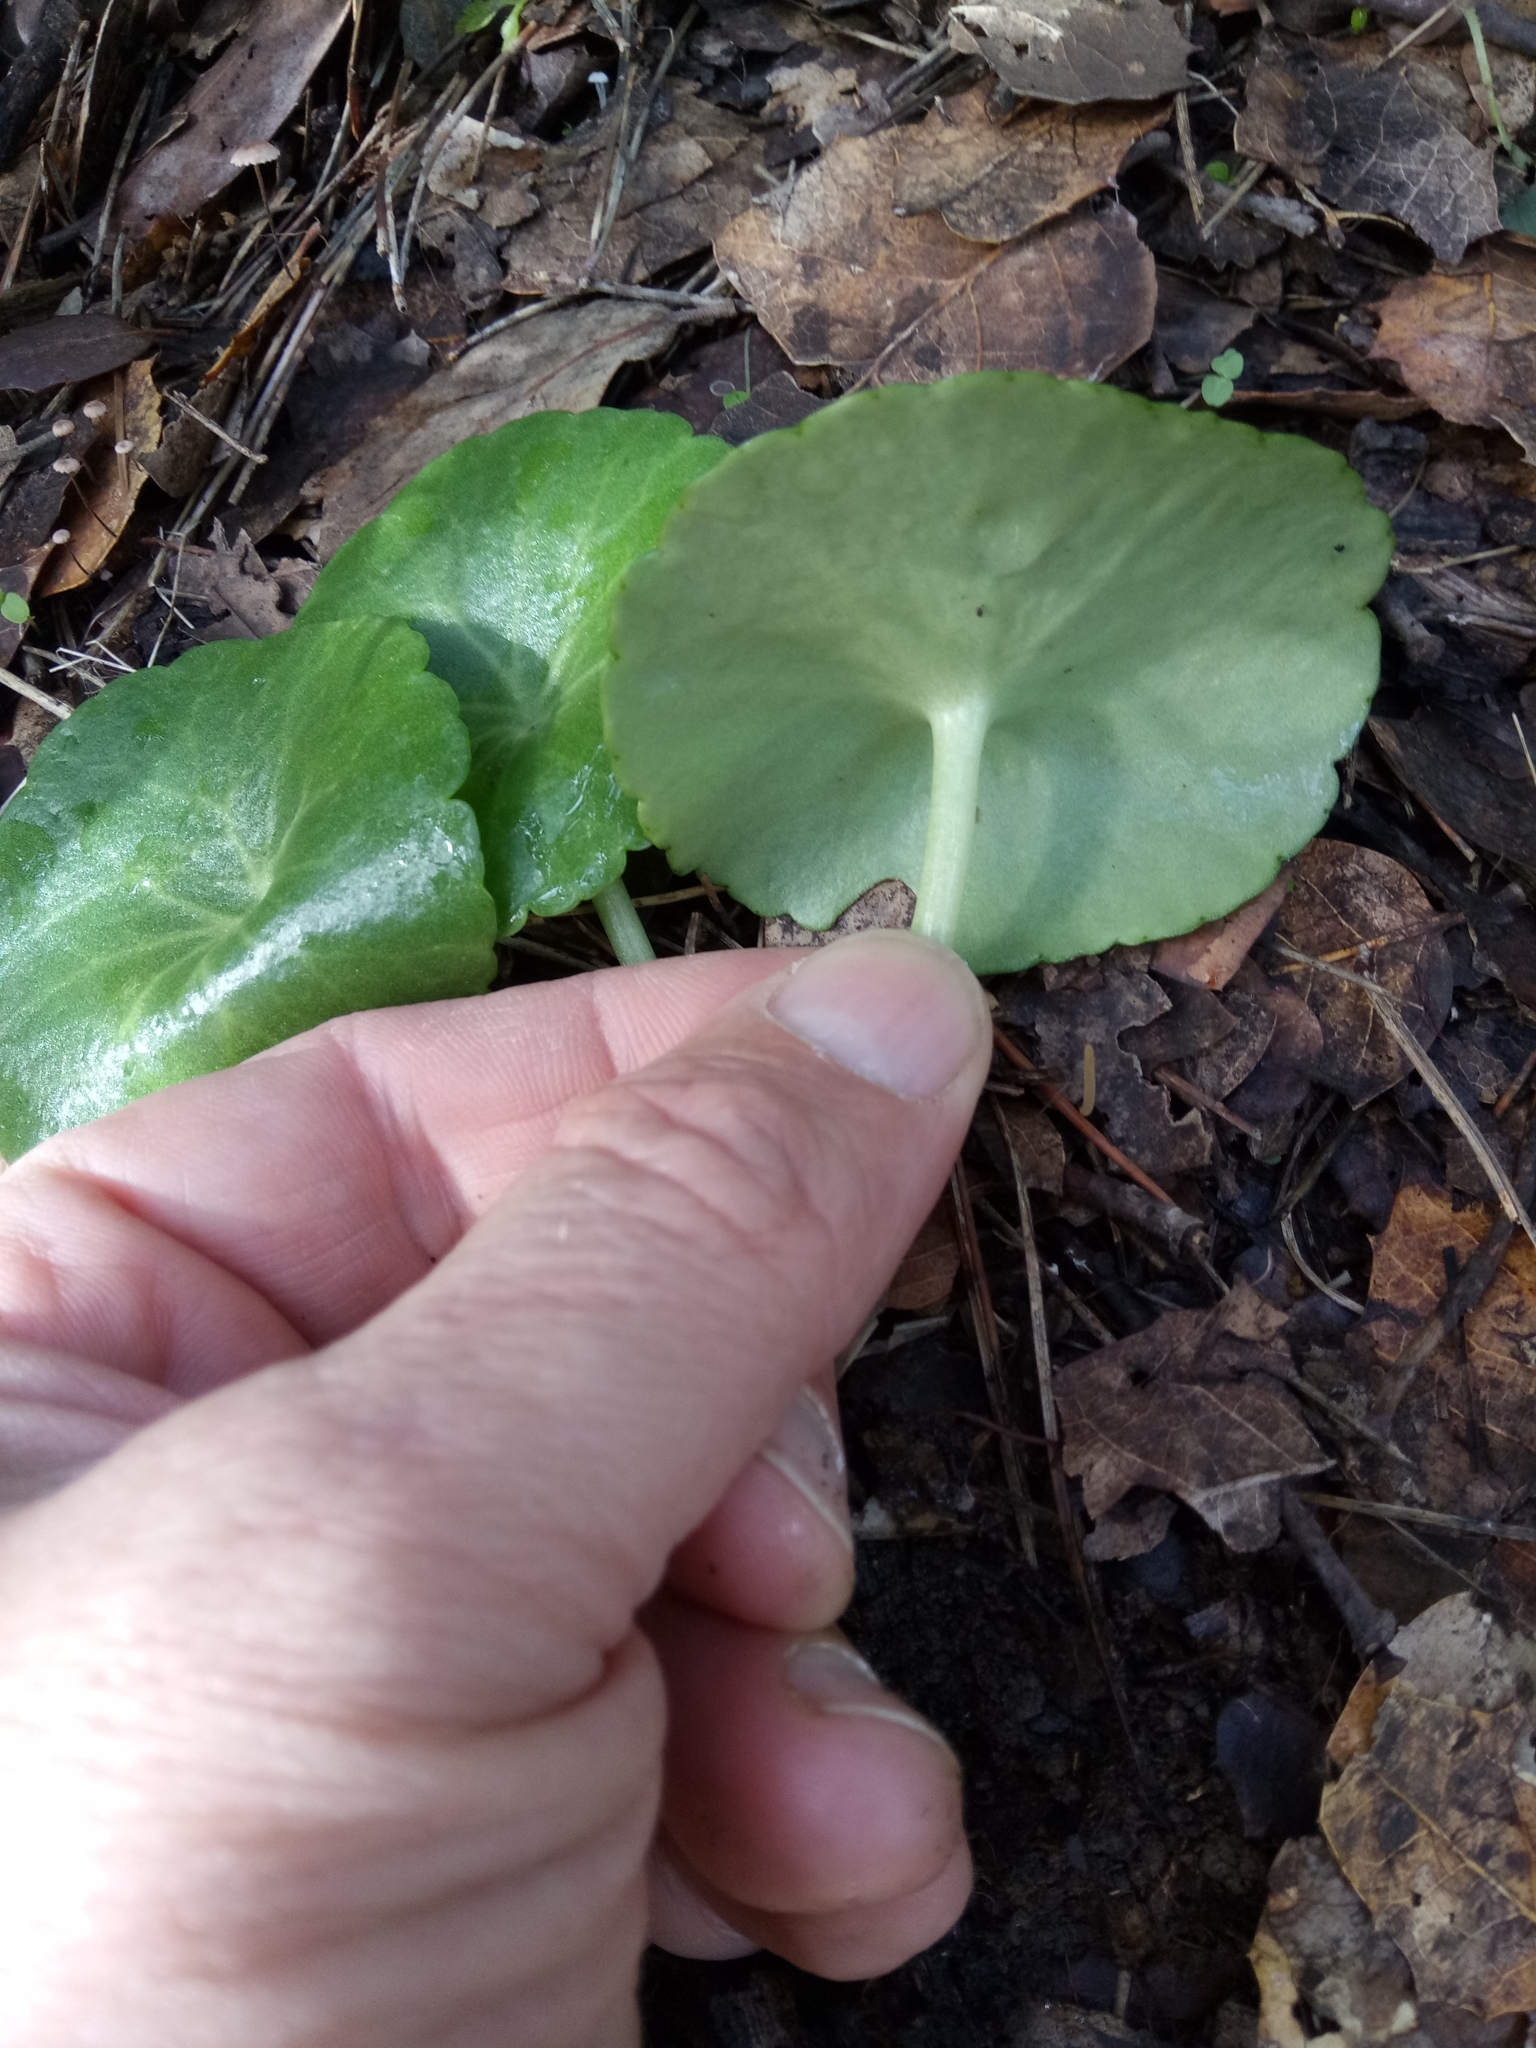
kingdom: Plantae
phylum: Tracheophyta
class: Magnoliopsida
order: Apiales
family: Araliaceae
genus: Hydrocotyle
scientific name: Hydrocotyle umbellata
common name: Water pennywort
